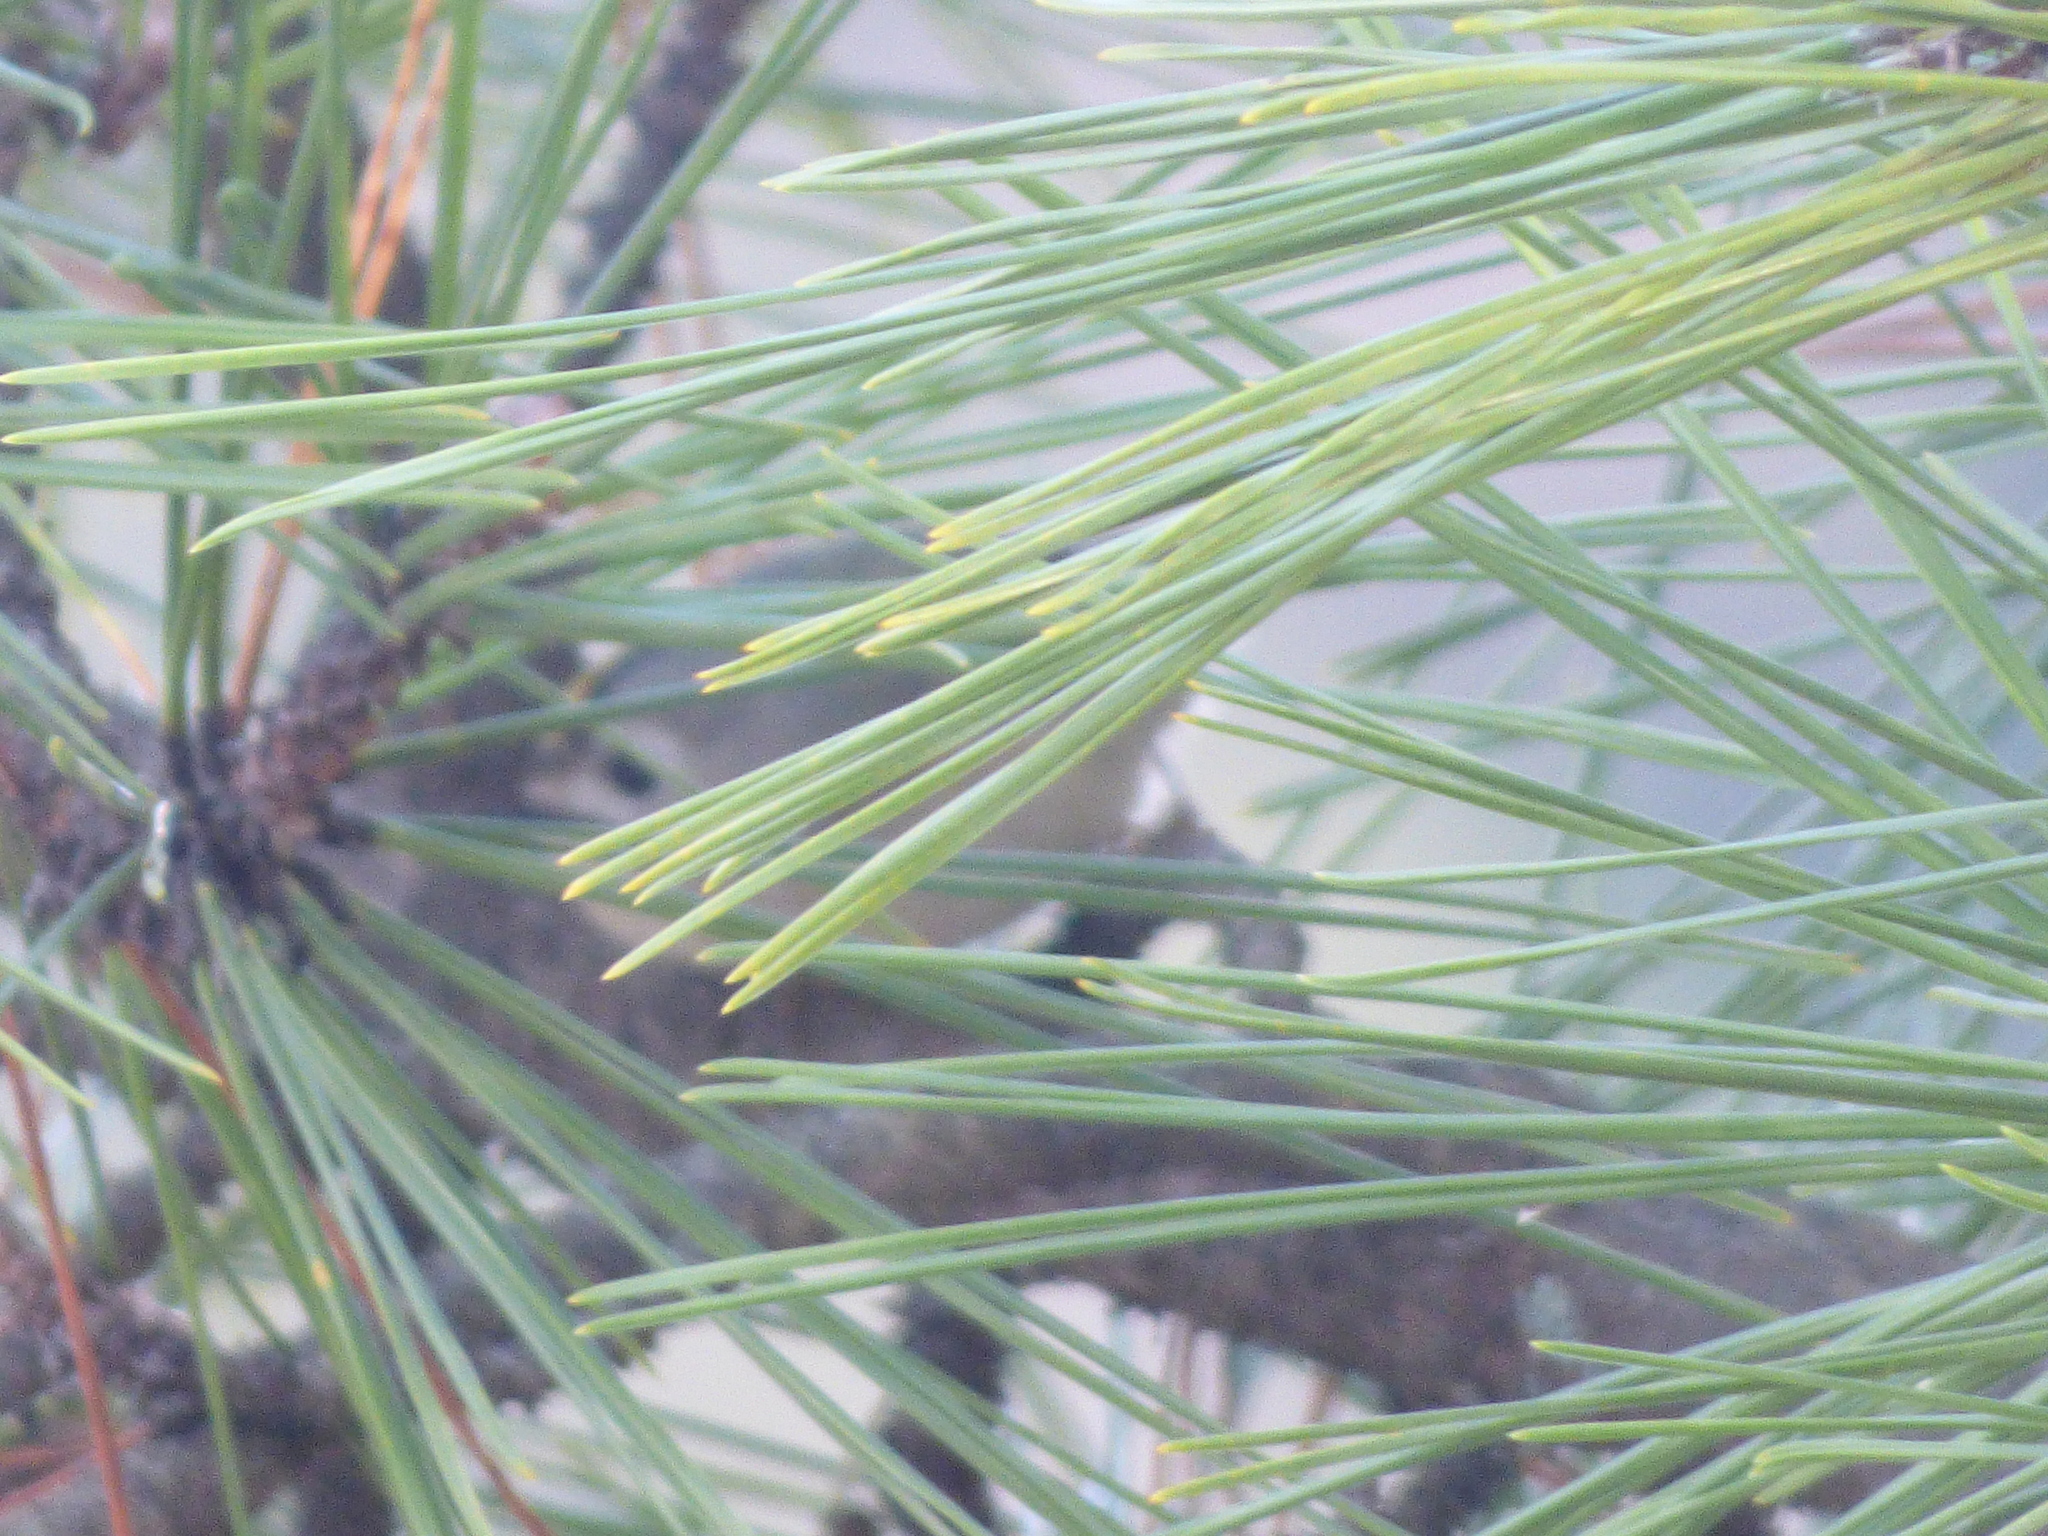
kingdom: Animalia
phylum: Chordata
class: Aves
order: Passeriformes
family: Regulidae
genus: Regulus
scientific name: Regulus regulus
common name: Goldcrest
